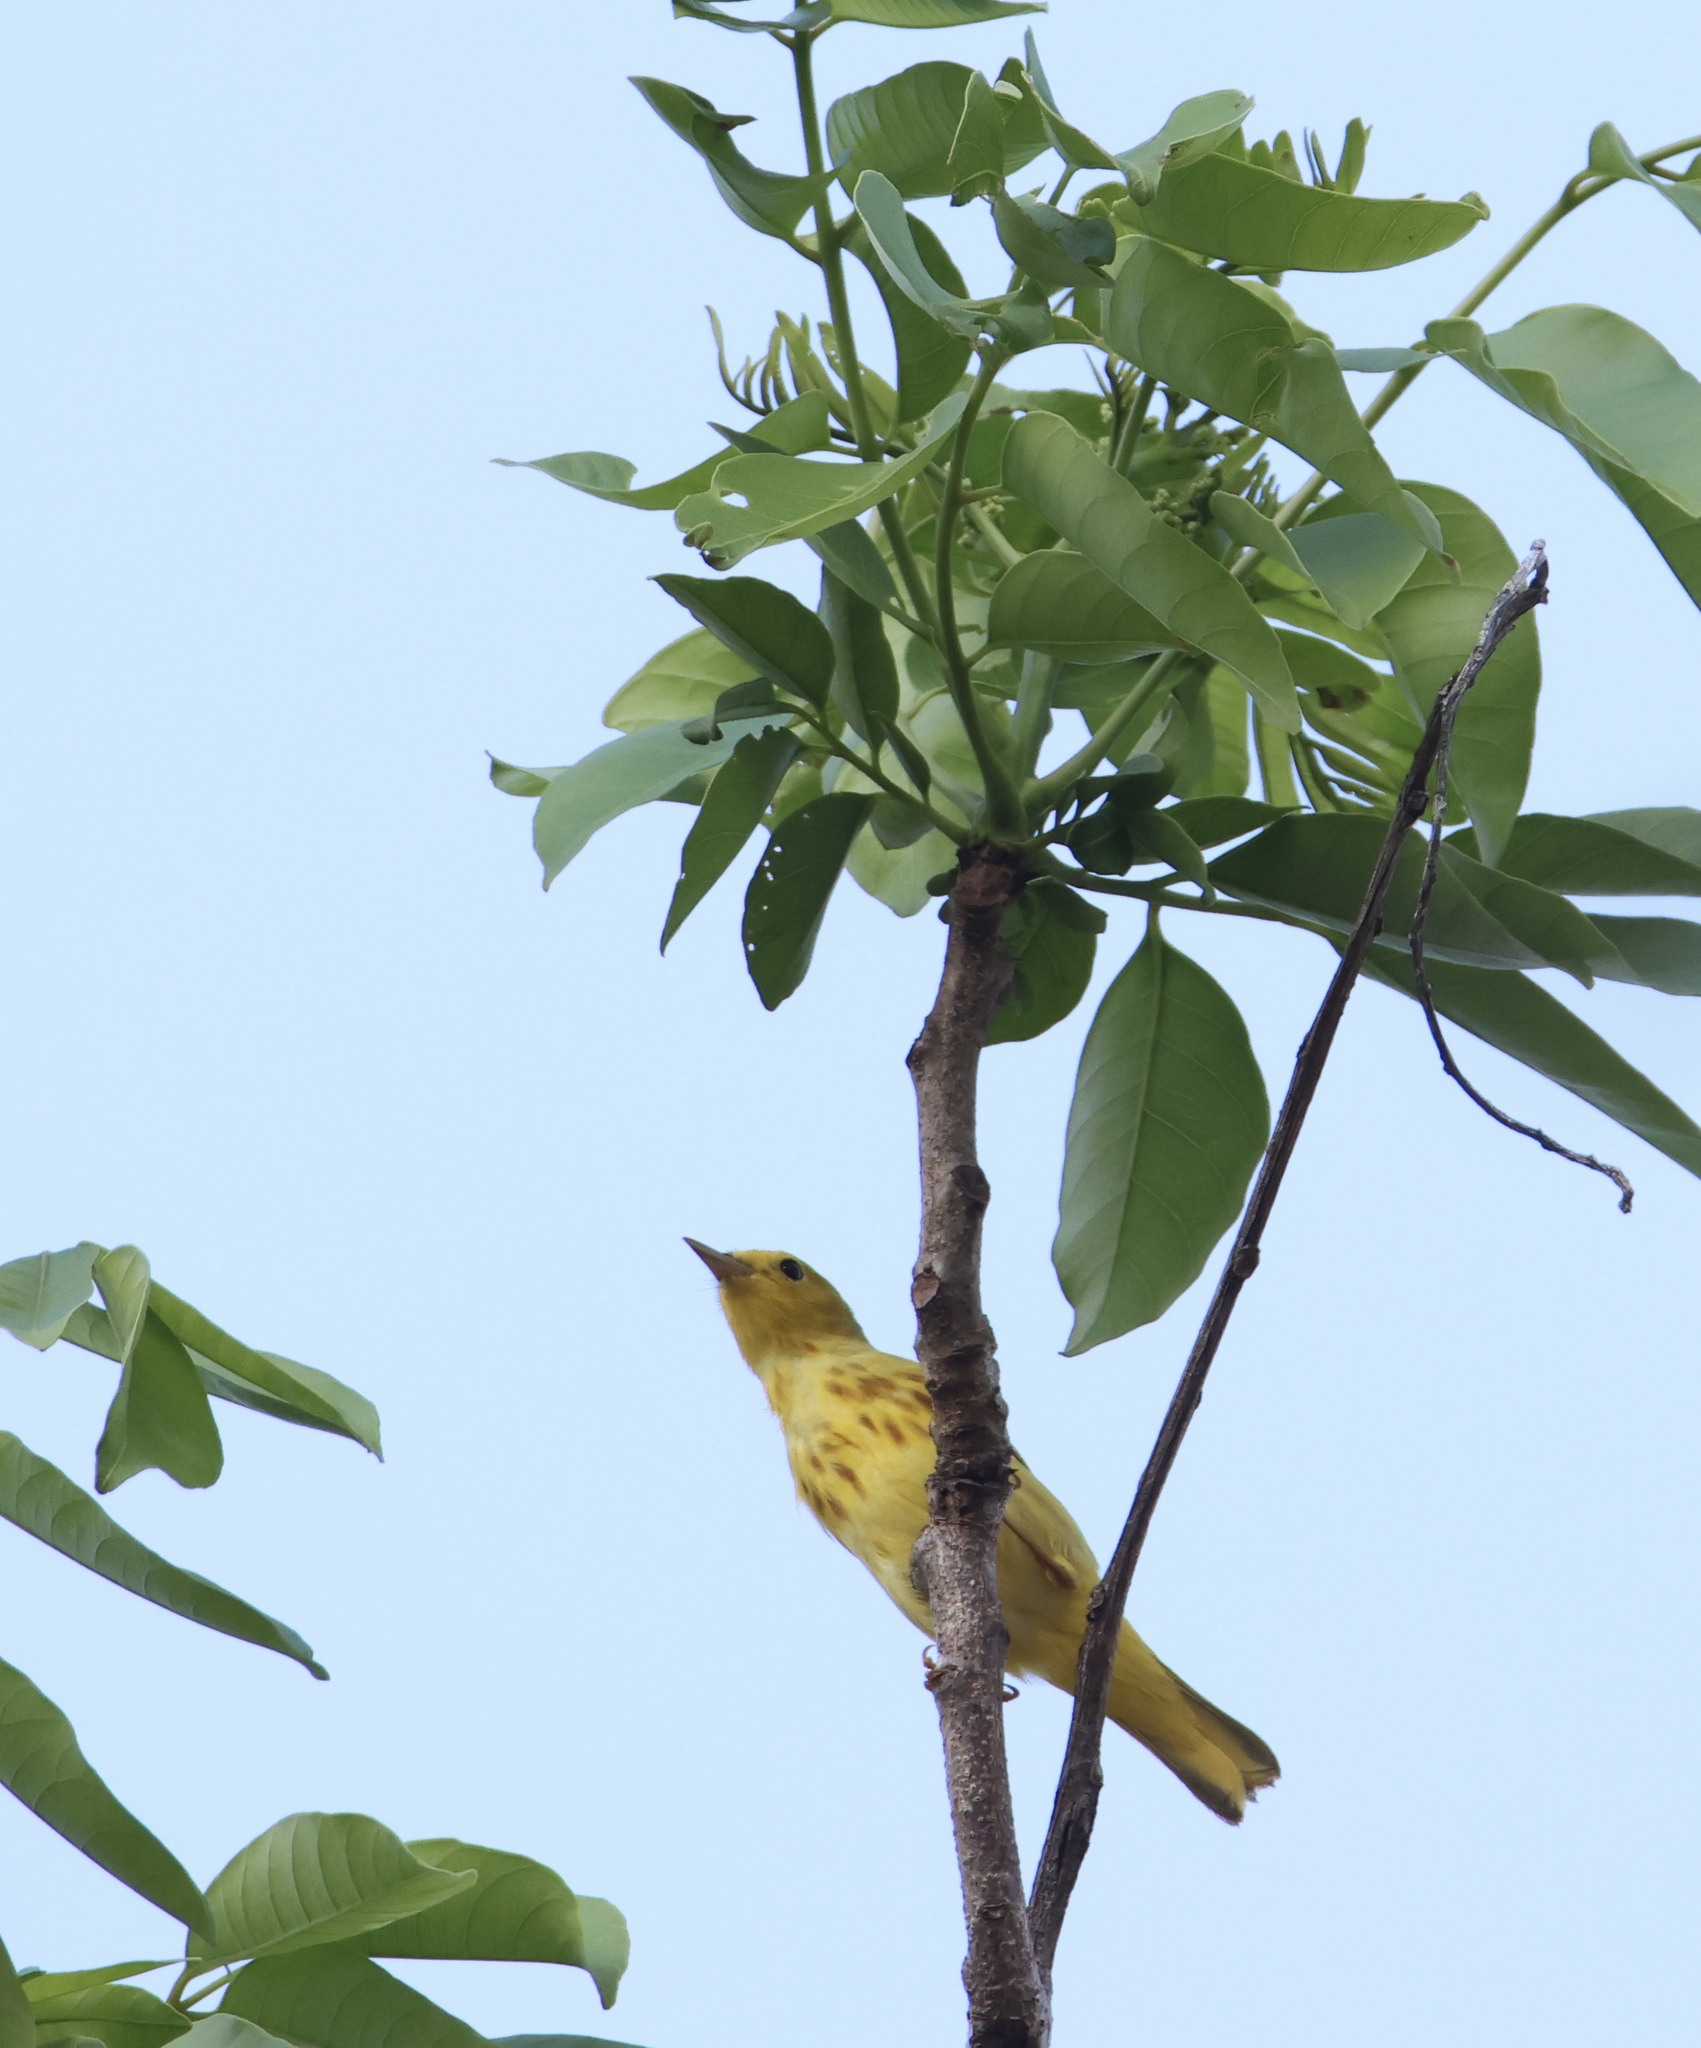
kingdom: Animalia
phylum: Chordata
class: Aves
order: Passeriformes
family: Parulidae
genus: Setophaga
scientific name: Setophaga petechia
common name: Yellow warbler
